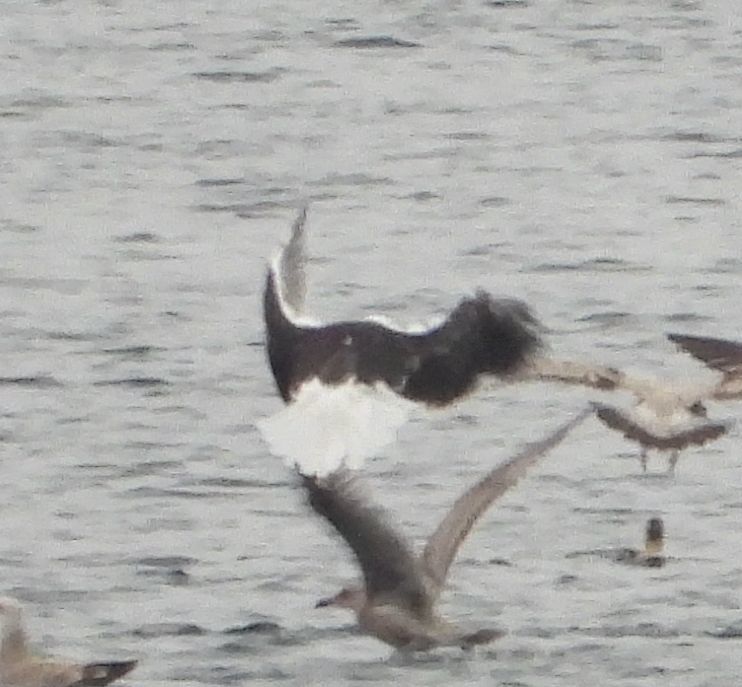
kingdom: Animalia
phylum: Chordata
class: Aves
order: Charadriiformes
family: Laridae
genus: Larus
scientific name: Larus marinus
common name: Great black-backed gull
